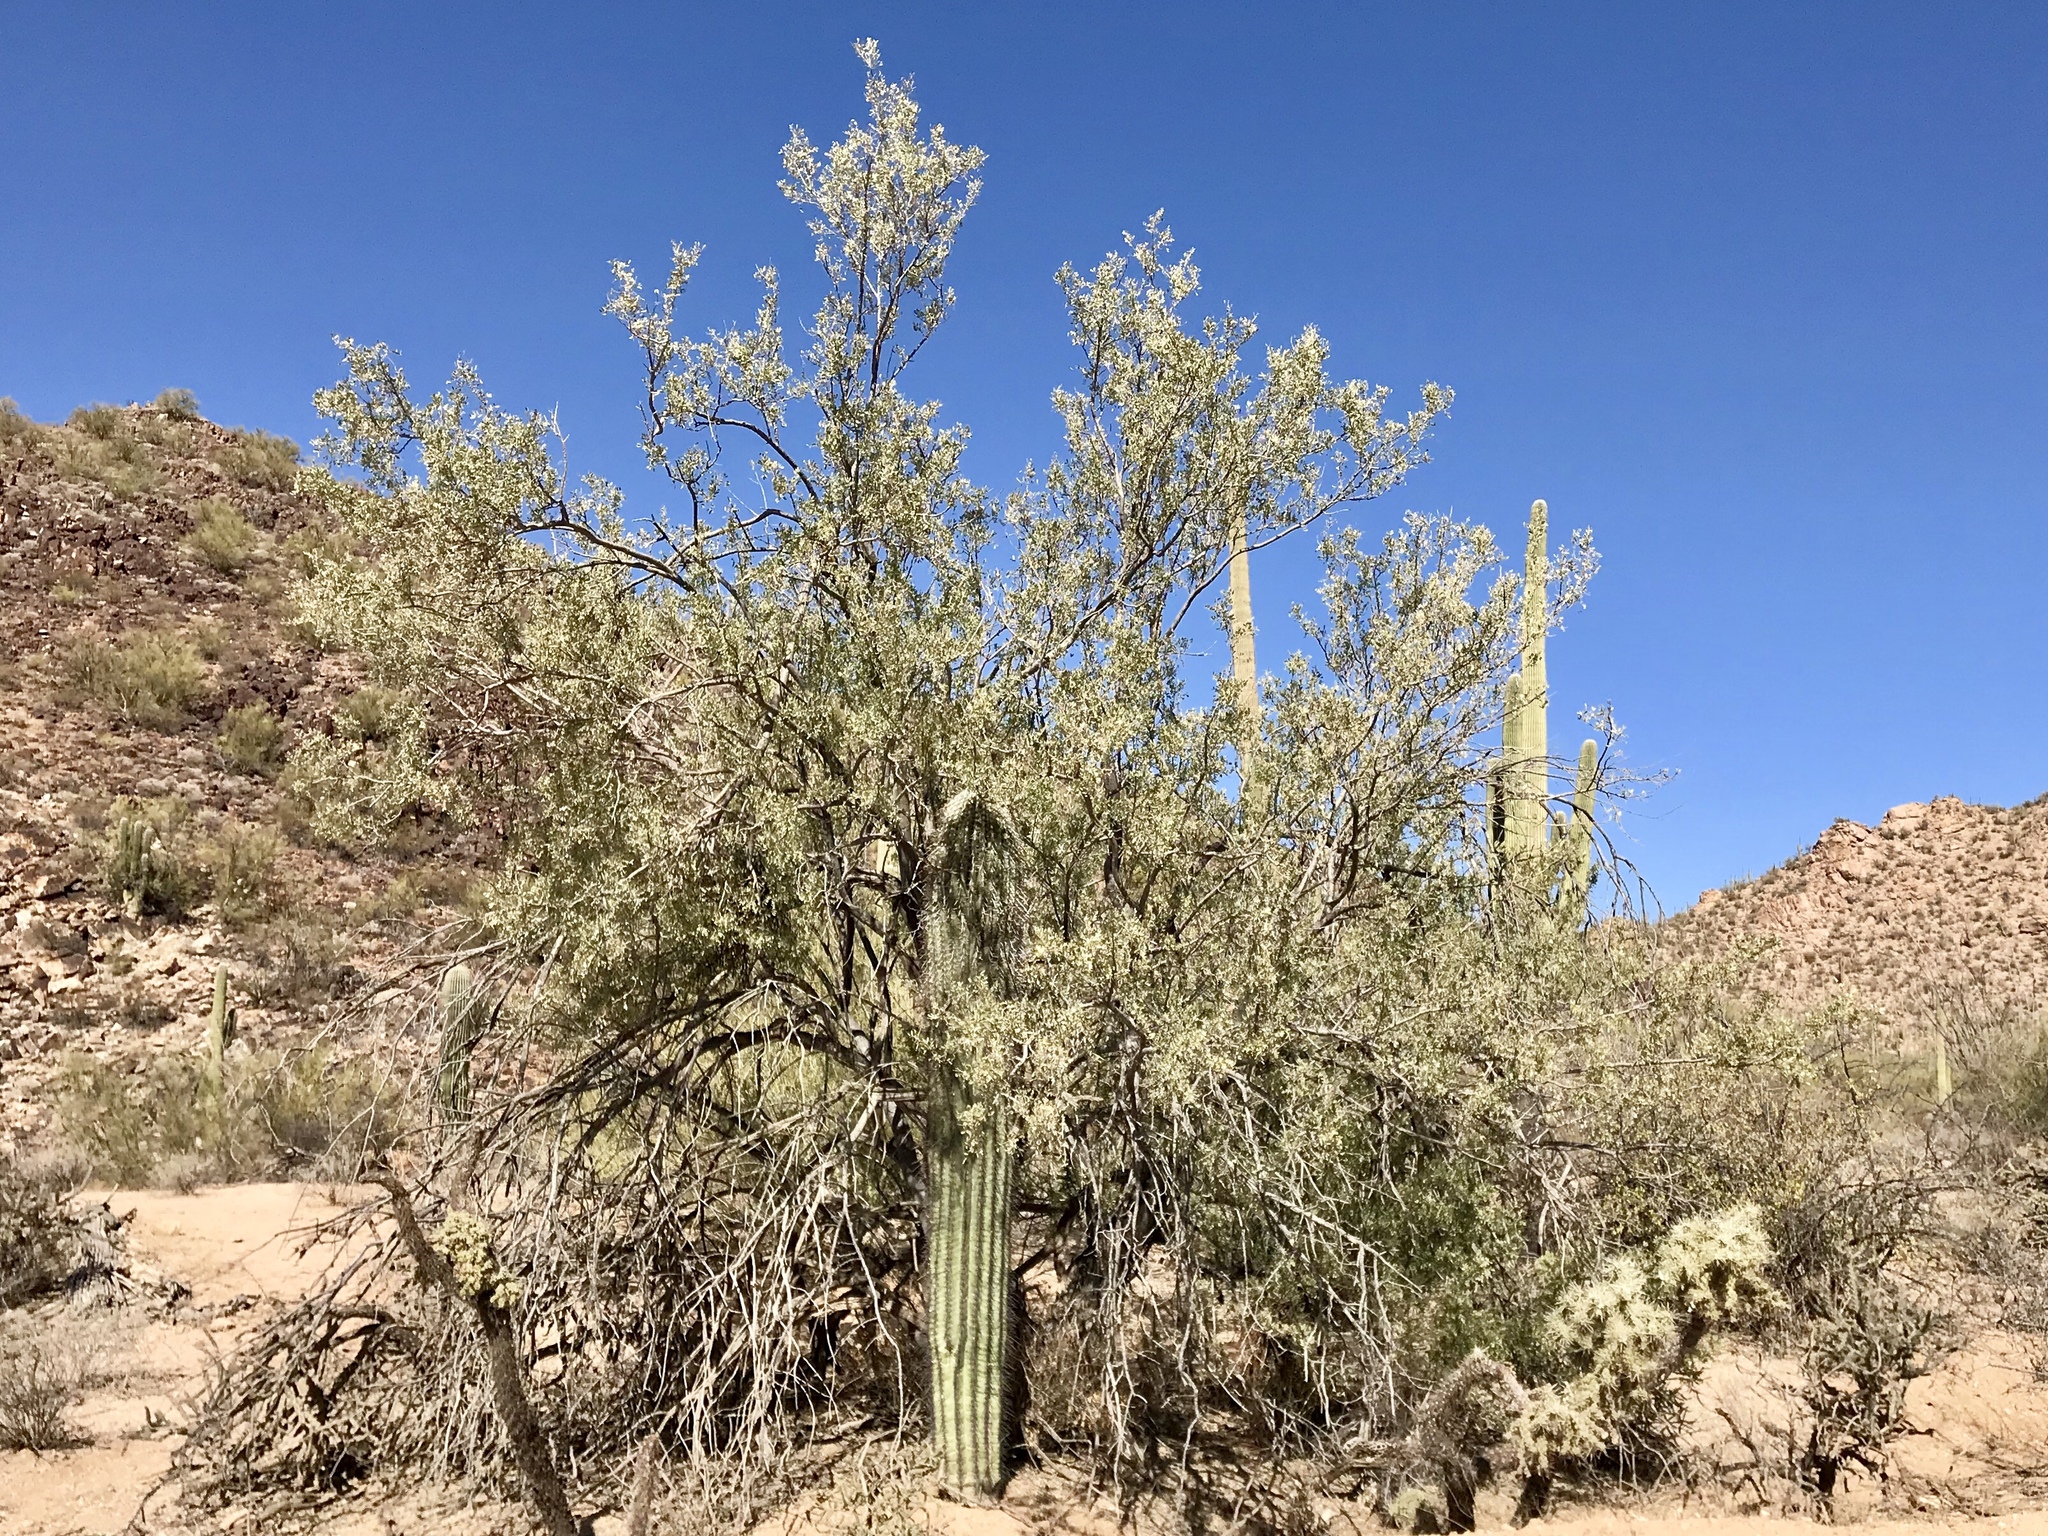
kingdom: Plantae
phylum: Tracheophyta
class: Magnoliopsida
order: Fabales
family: Fabaceae
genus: Olneya
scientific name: Olneya tesota
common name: Desert ironwood
